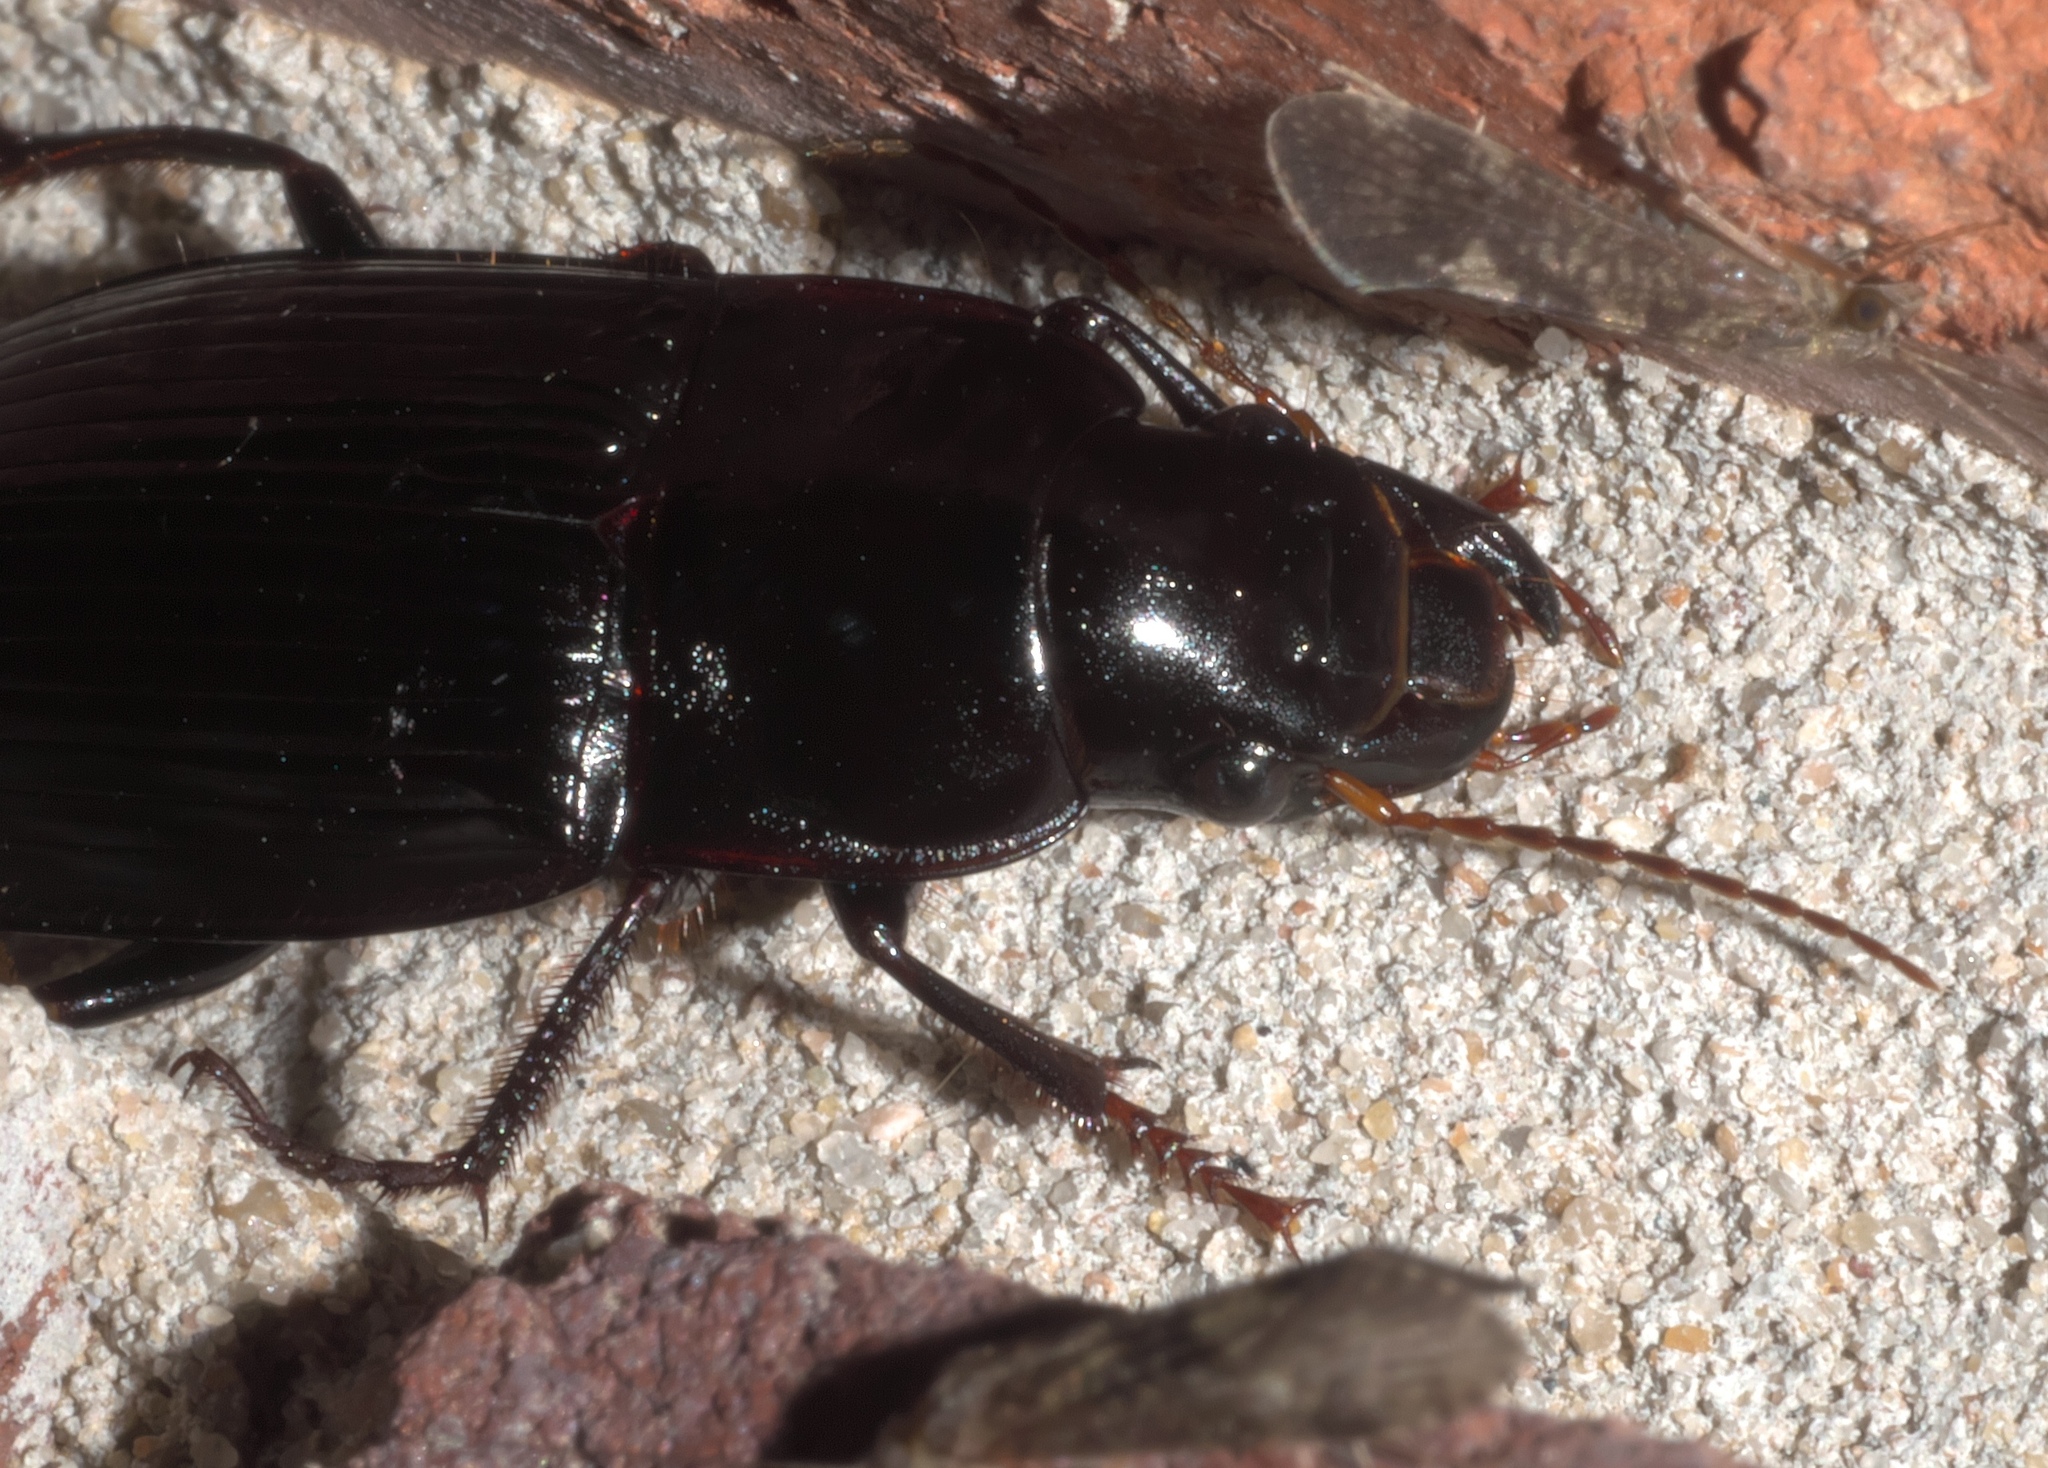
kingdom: Animalia
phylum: Arthropoda
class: Insecta
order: Coleoptera
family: Carabidae
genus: Harpalus
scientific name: Harpalus caliginosus
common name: Murky ground beetle
